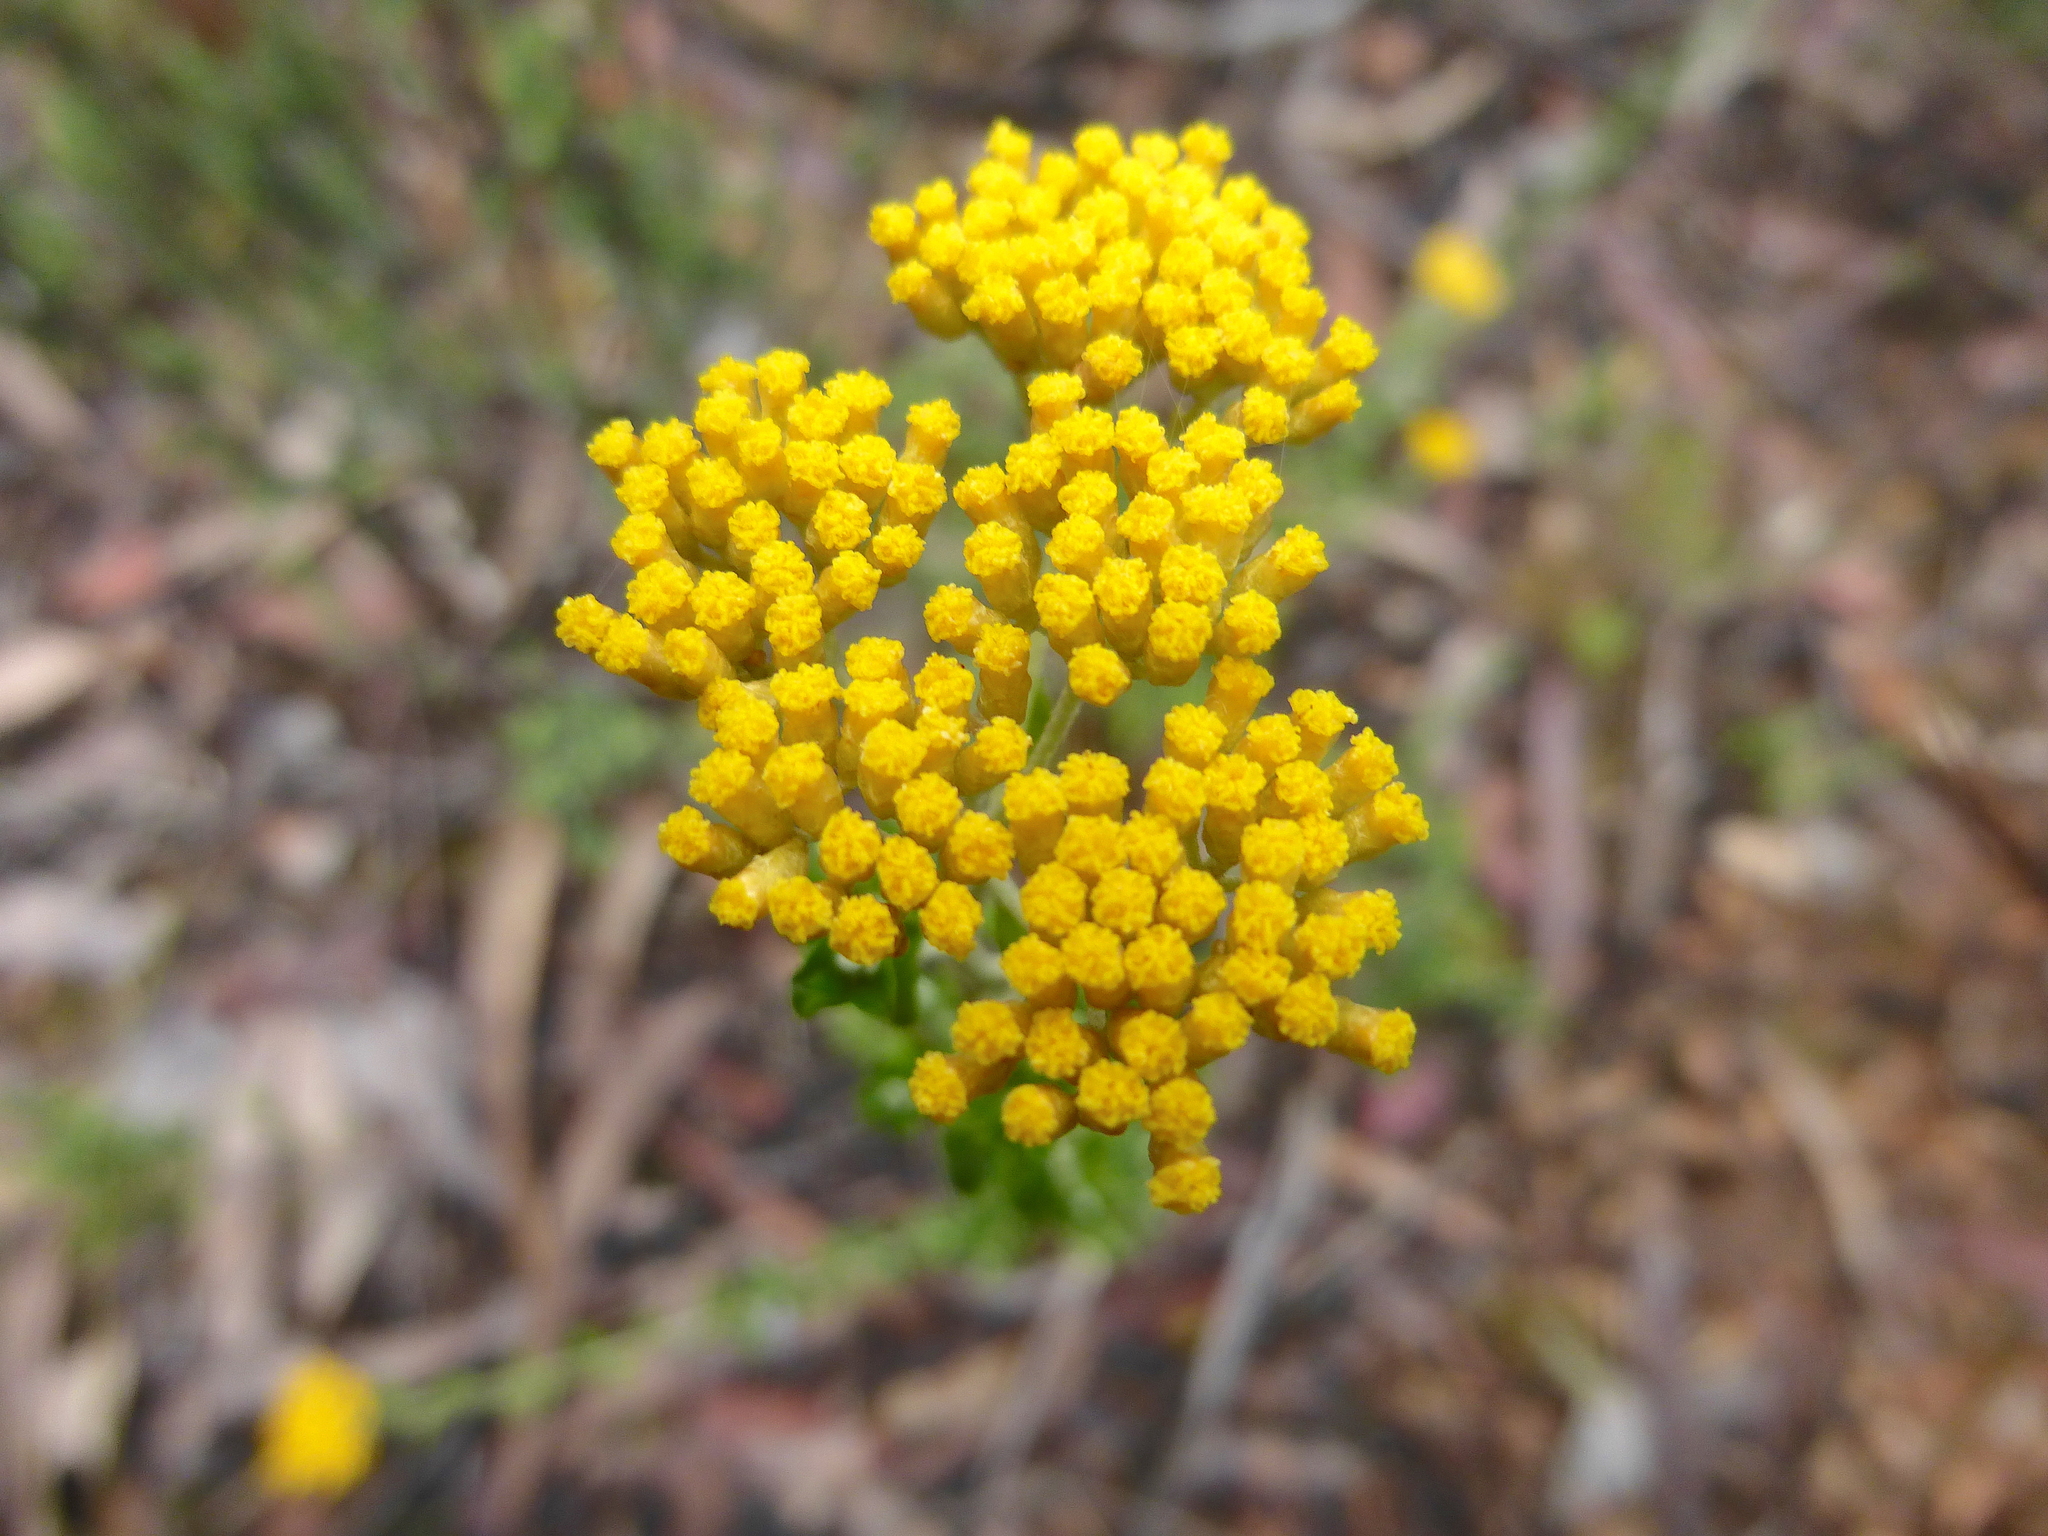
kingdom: Plantae
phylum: Tracheophyta
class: Magnoliopsida
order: Asterales
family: Asteraceae
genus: Ozothamnus
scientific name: Ozothamnus obcordatus
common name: Grey everlasting
